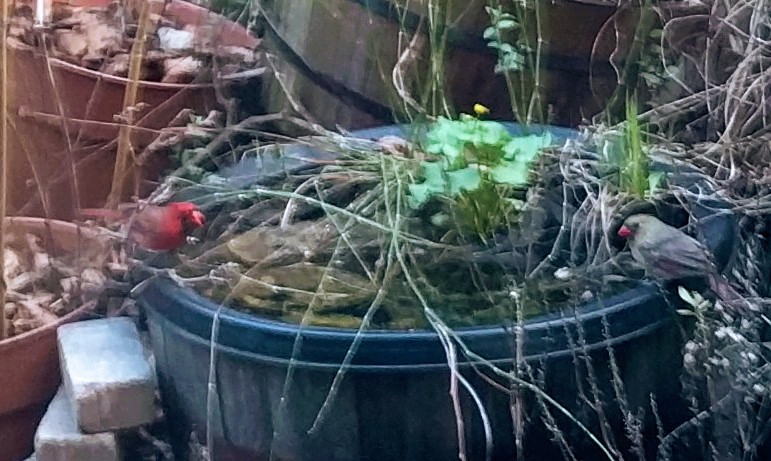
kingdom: Animalia
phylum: Chordata
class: Aves
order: Passeriformes
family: Cardinalidae
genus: Cardinalis
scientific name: Cardinalis cardinalis
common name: Northern cardinal
